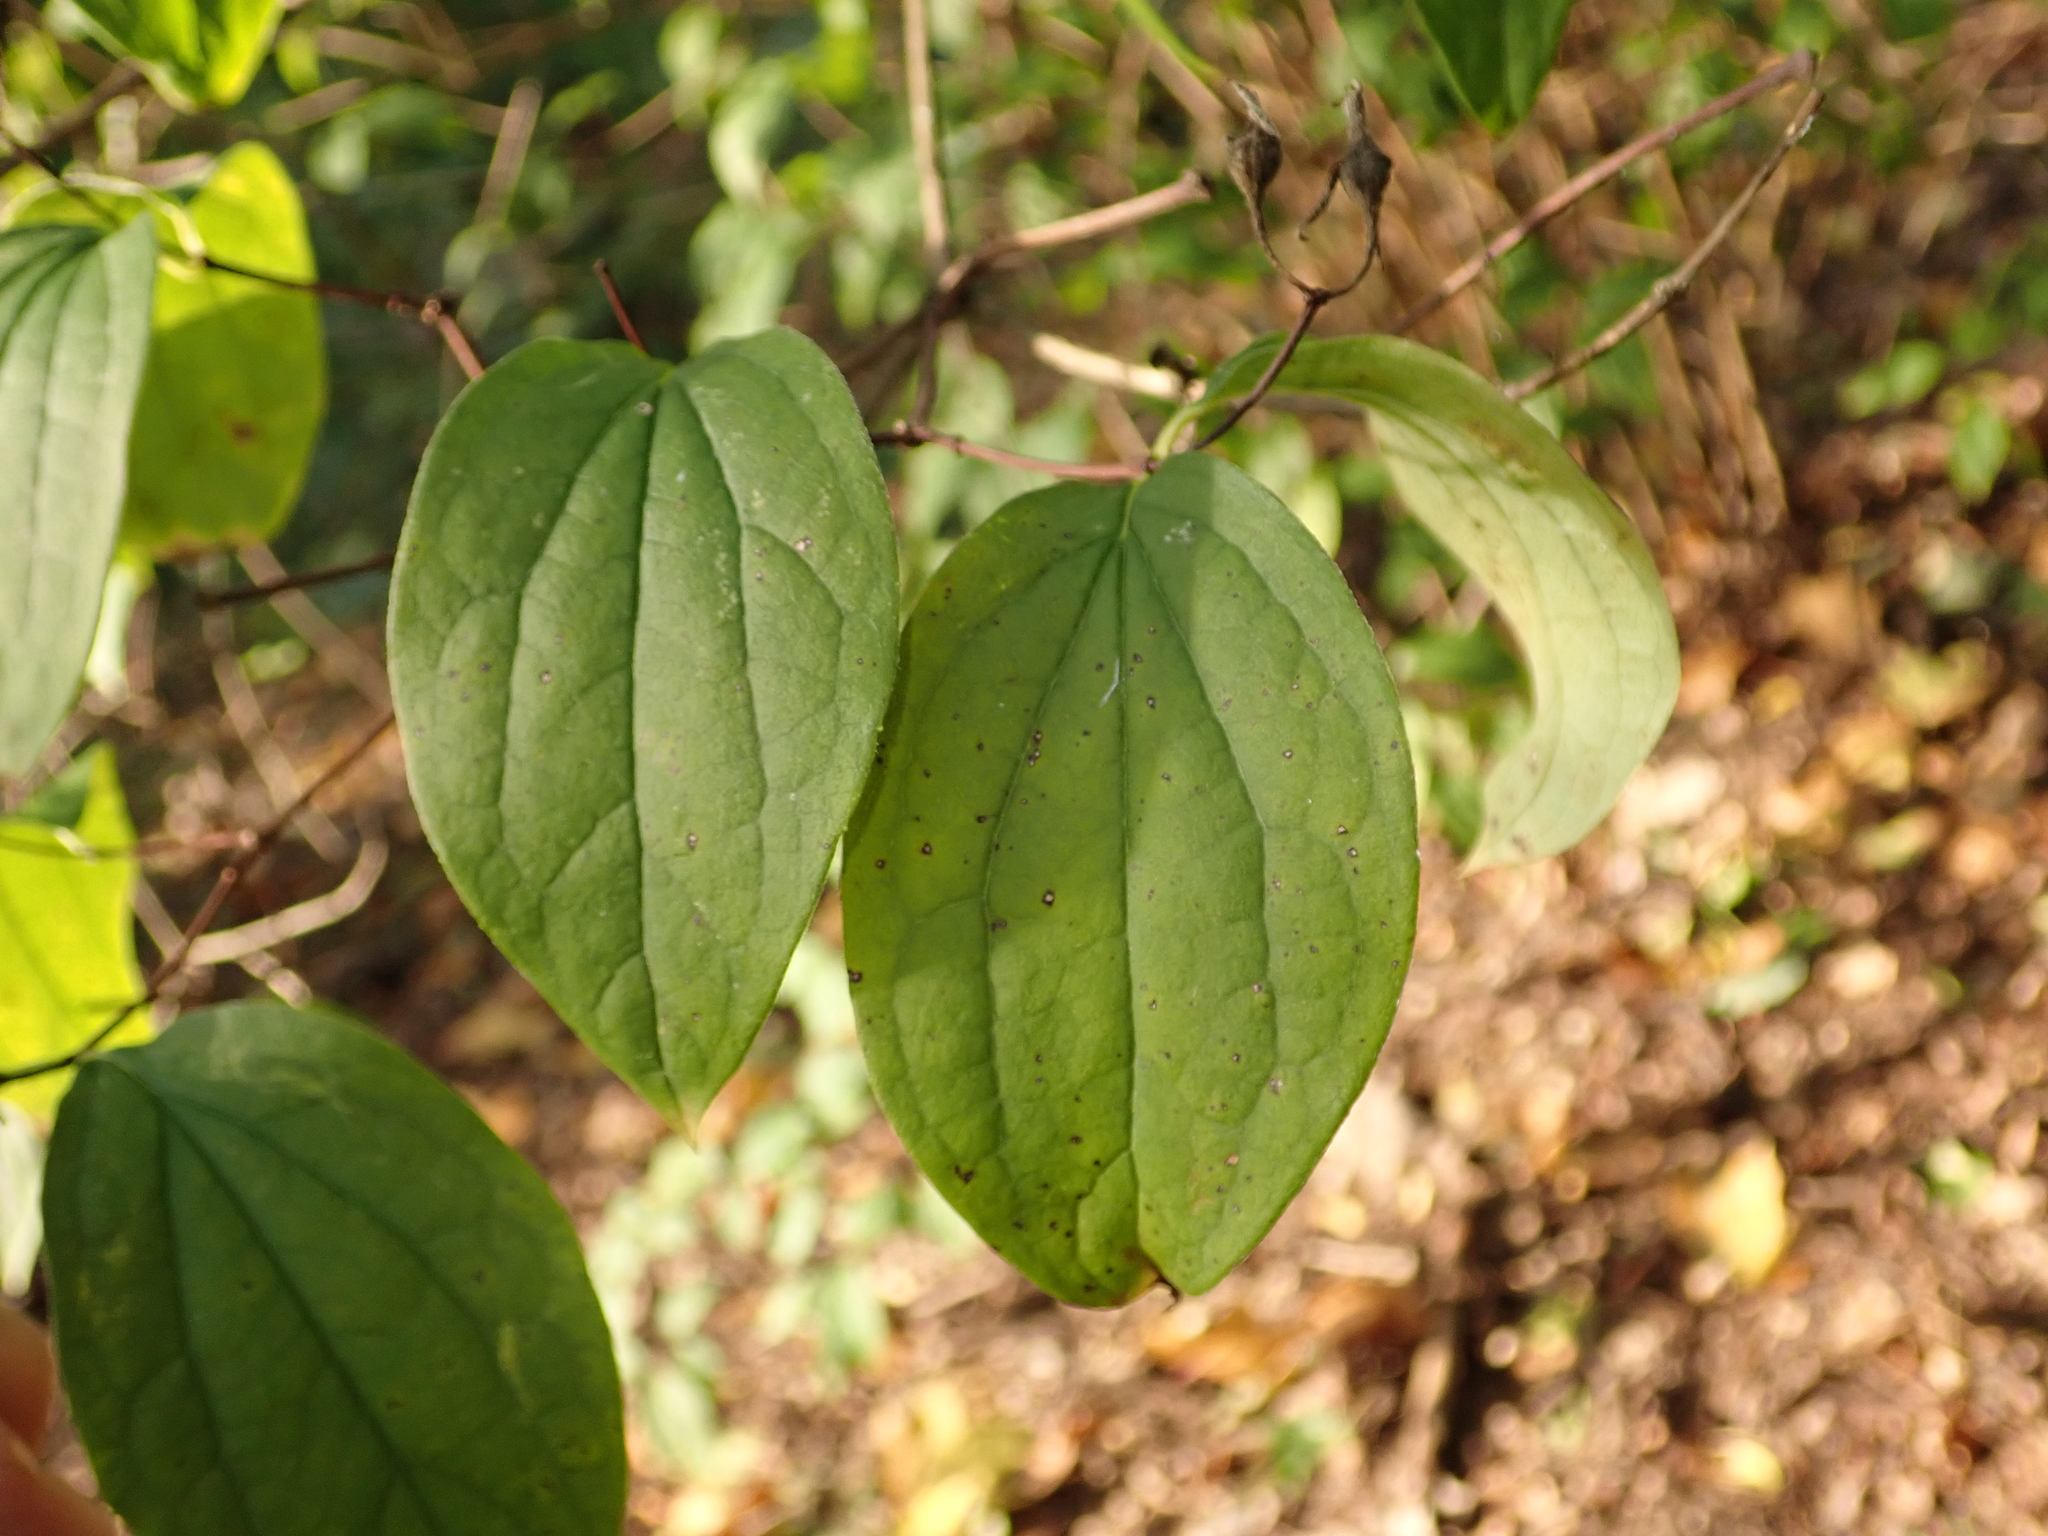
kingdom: Plantae
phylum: Tracheophyta
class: Magnoliopsida
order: Cornales
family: Cornaceae
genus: Cornus
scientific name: Cornus sanguinea
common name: Dogwood
